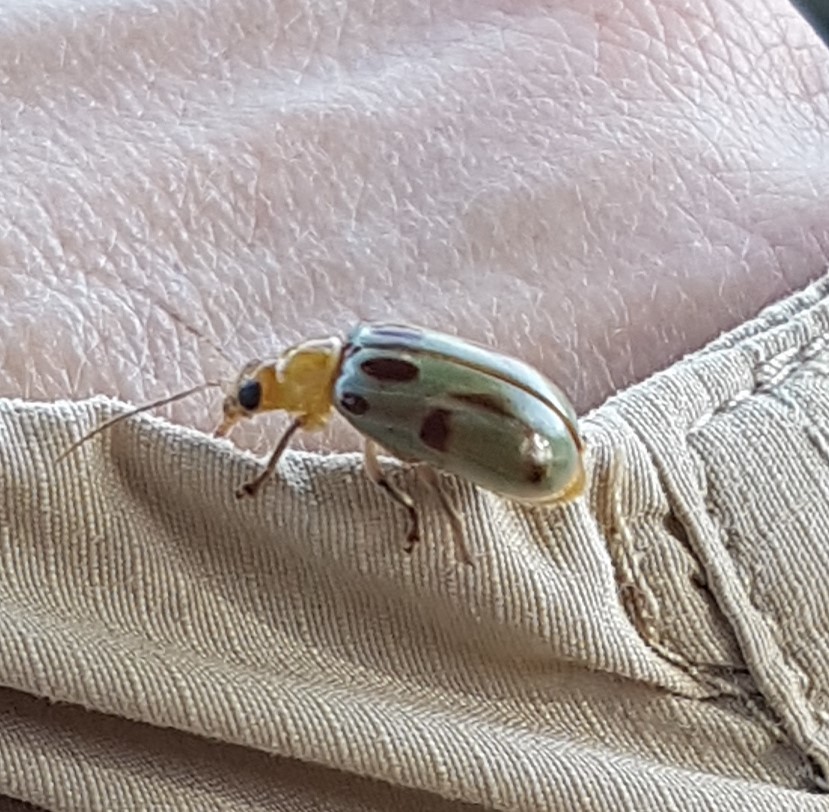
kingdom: Animalia
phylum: Arthropoda
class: Insecta
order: Coleoptera
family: Chrysomelidae
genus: Exora
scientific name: Exora obsoleta
